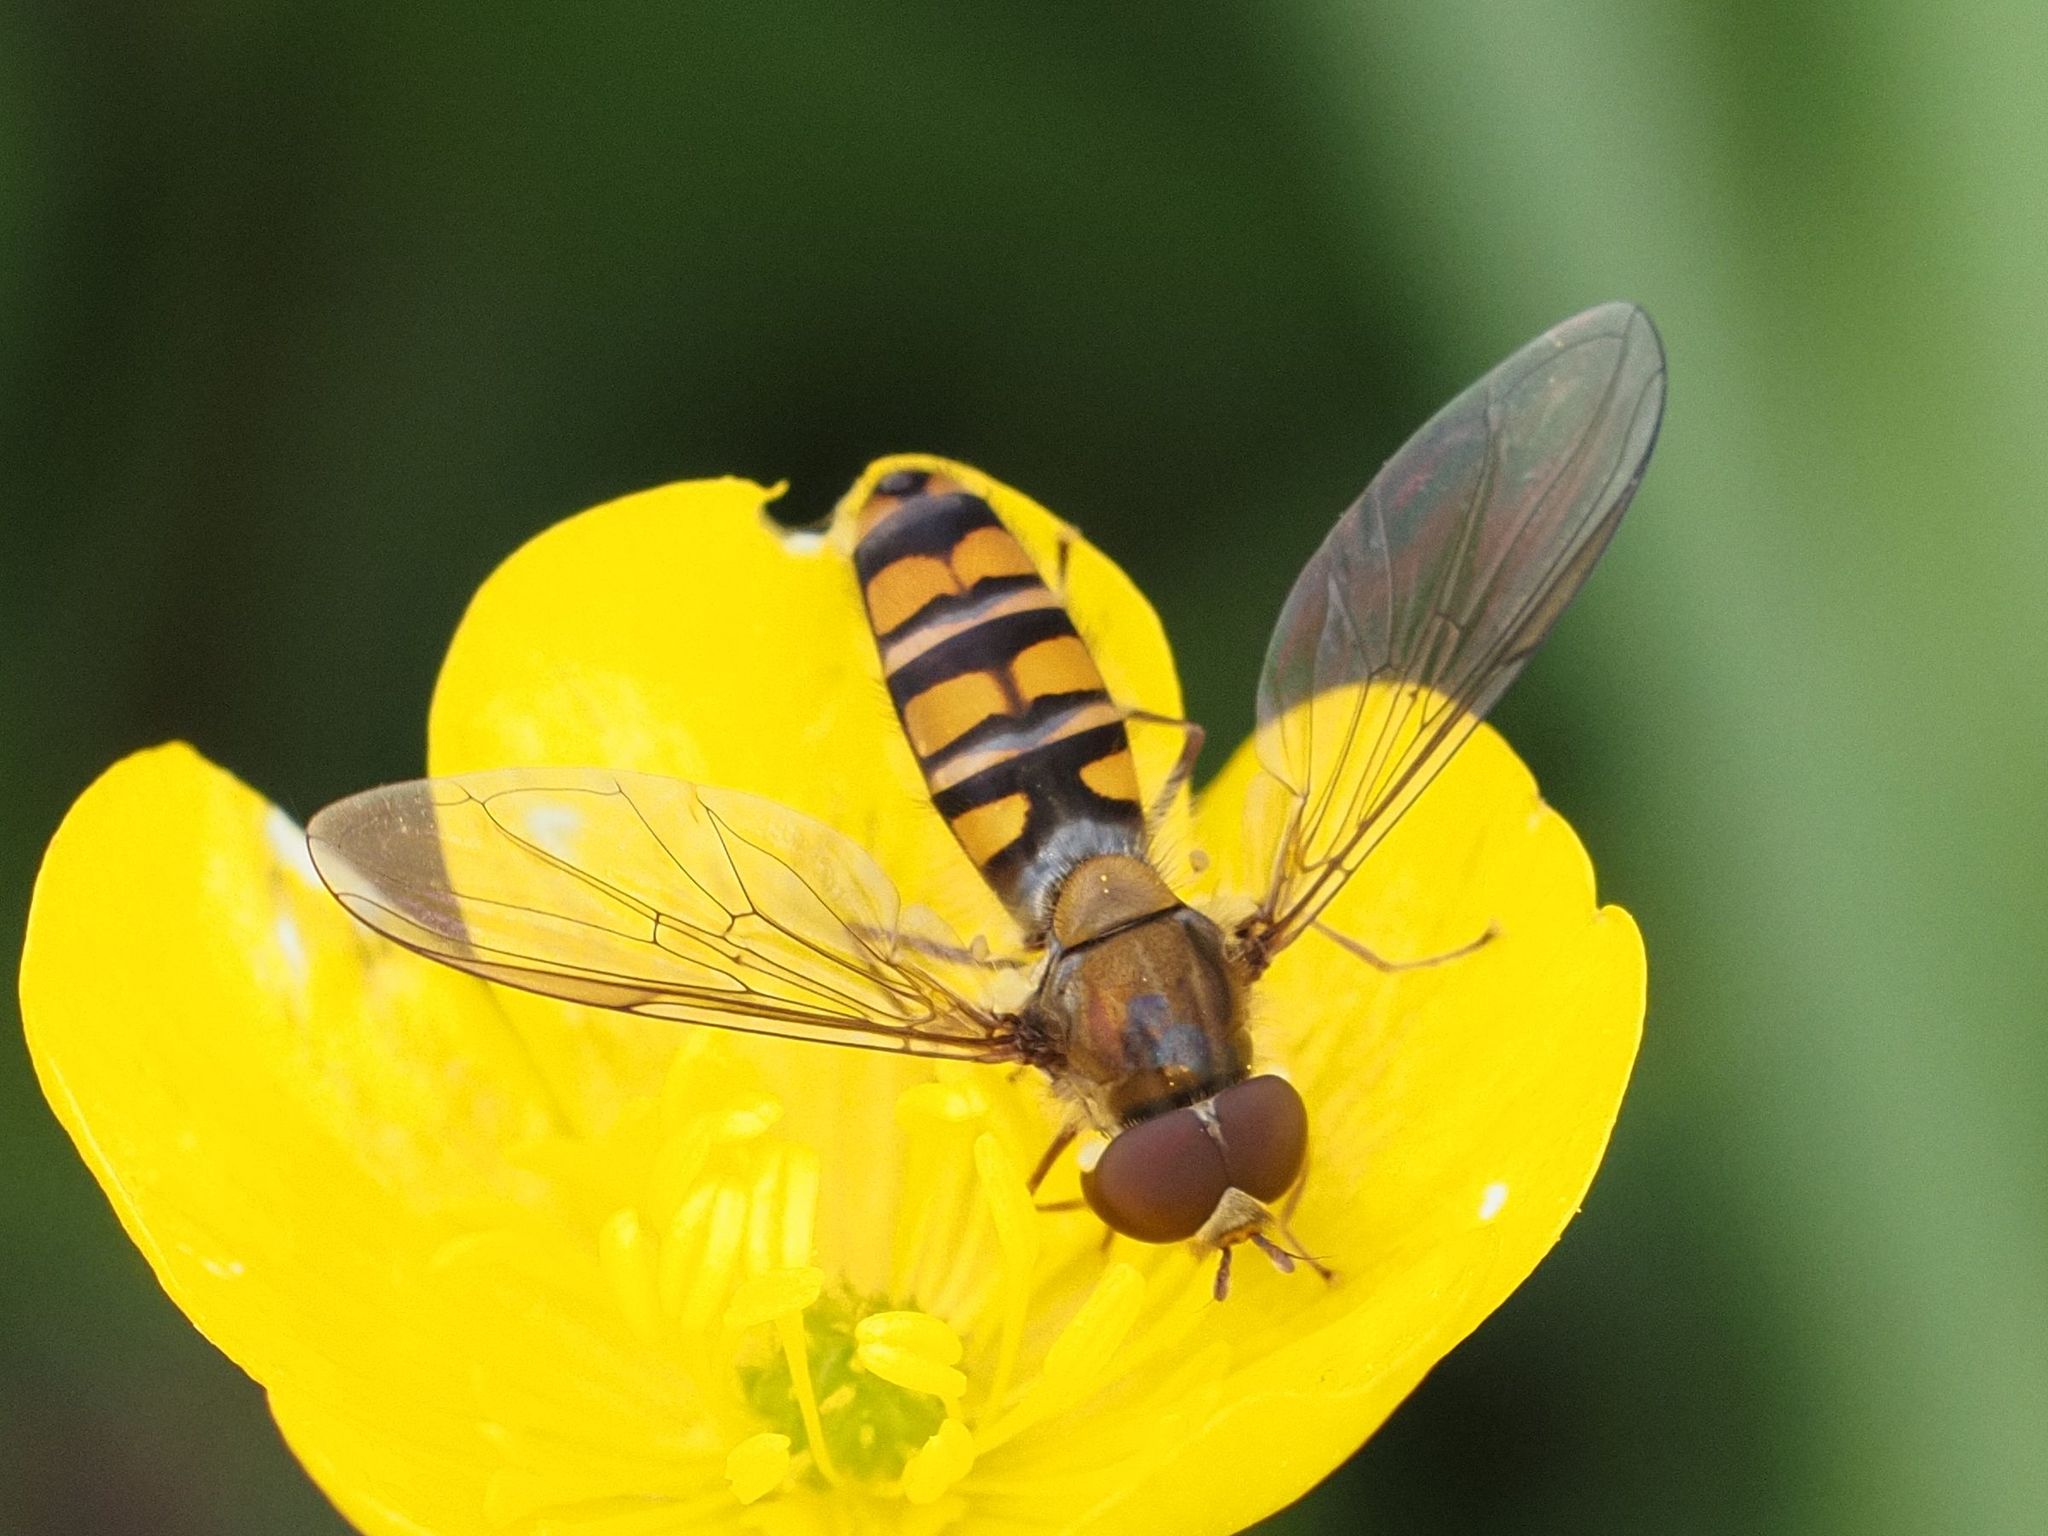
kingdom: Animalia
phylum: Arthropoda
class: Insecta
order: Diptera
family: Syrphidae
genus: Episyrphus
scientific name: Episyrphus balteatus
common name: Marmalade hoverfly
